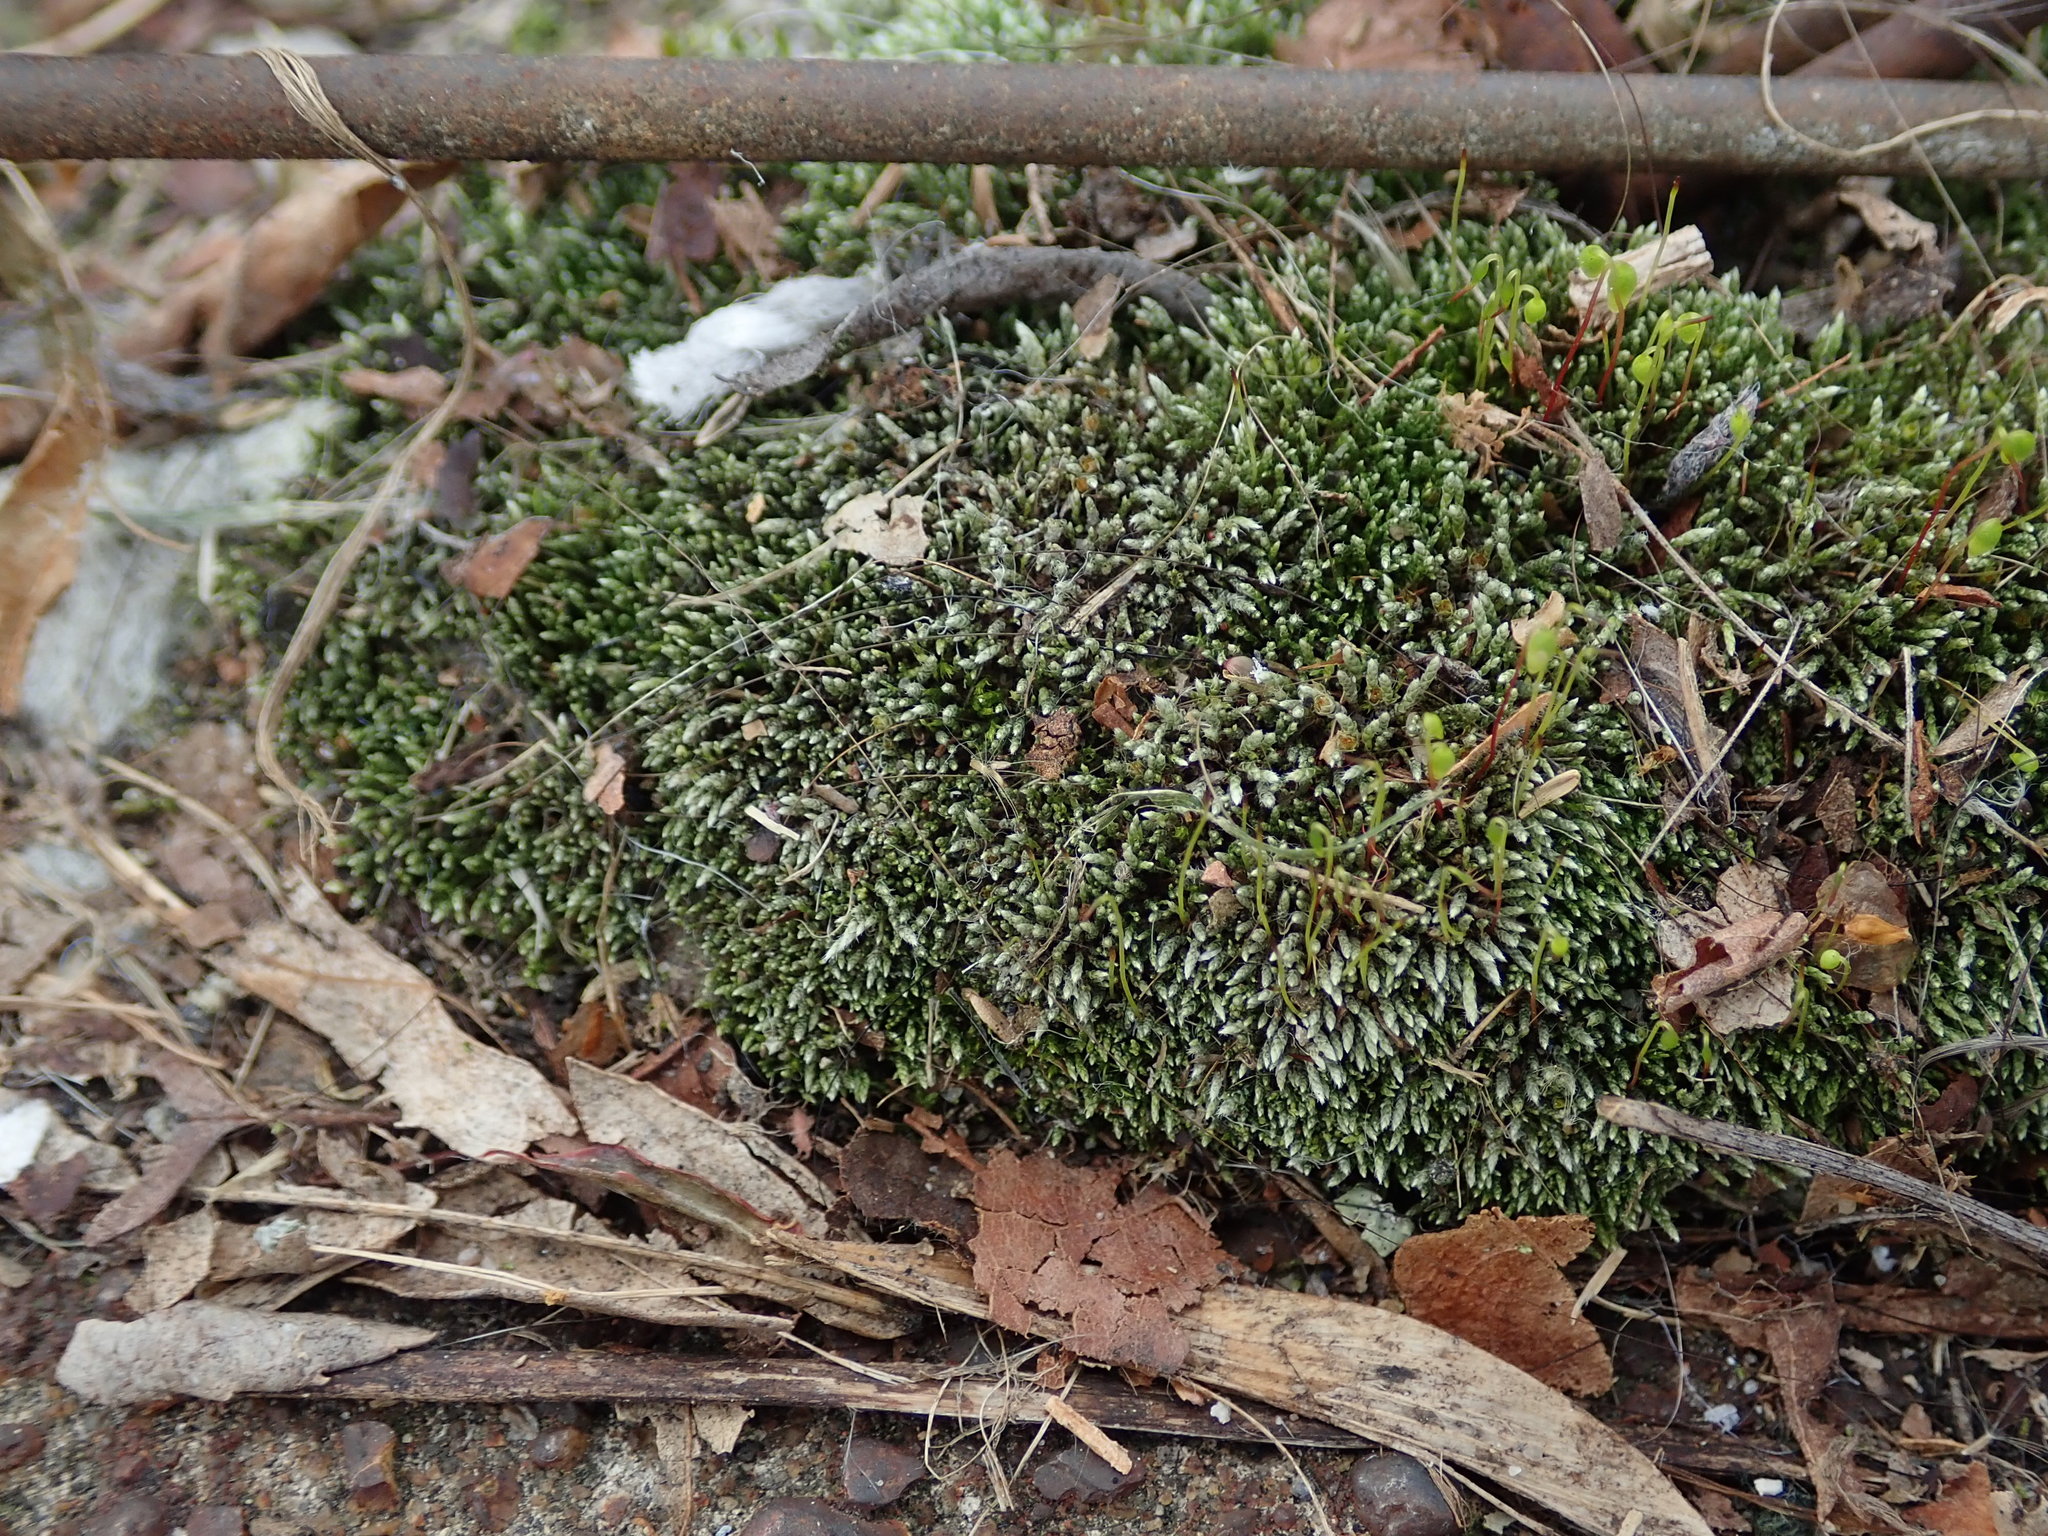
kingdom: Plantae
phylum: Bryophyta
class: Bryopsida
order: Bryales
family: Bryaceae
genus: Bryum
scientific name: Bryum argenteum
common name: Silver-moss
